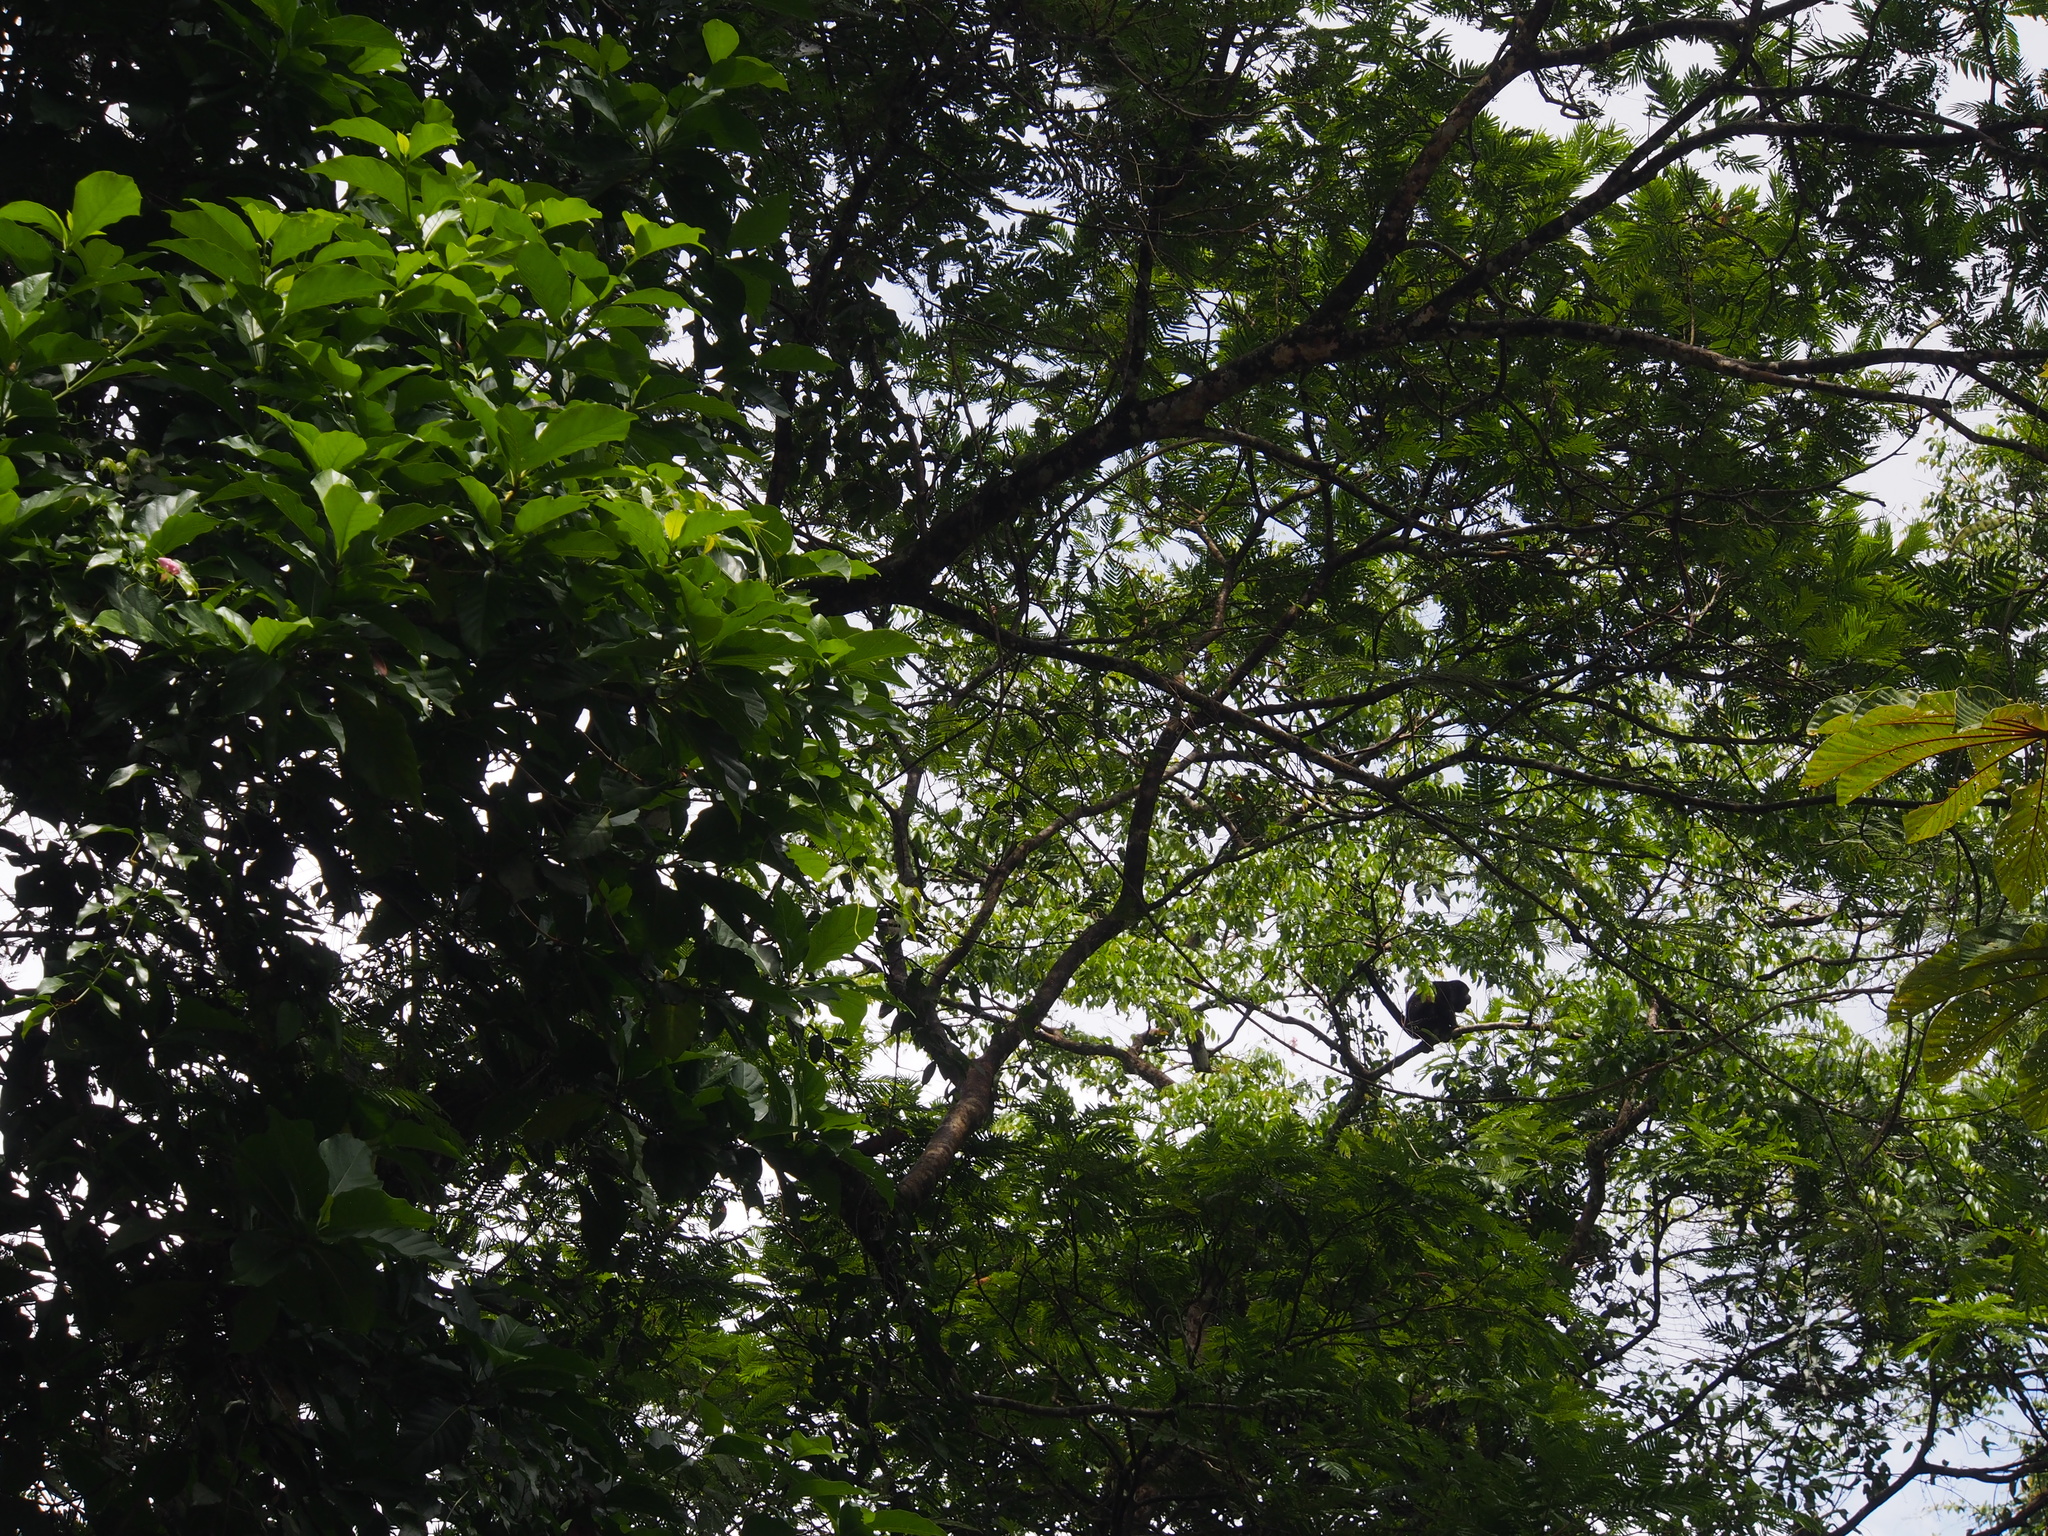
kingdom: Animalia
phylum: Chordata
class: Mammalia
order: Primates
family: Atelidae
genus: Alouatta
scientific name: Alouatta palliata
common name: Mantled howler
